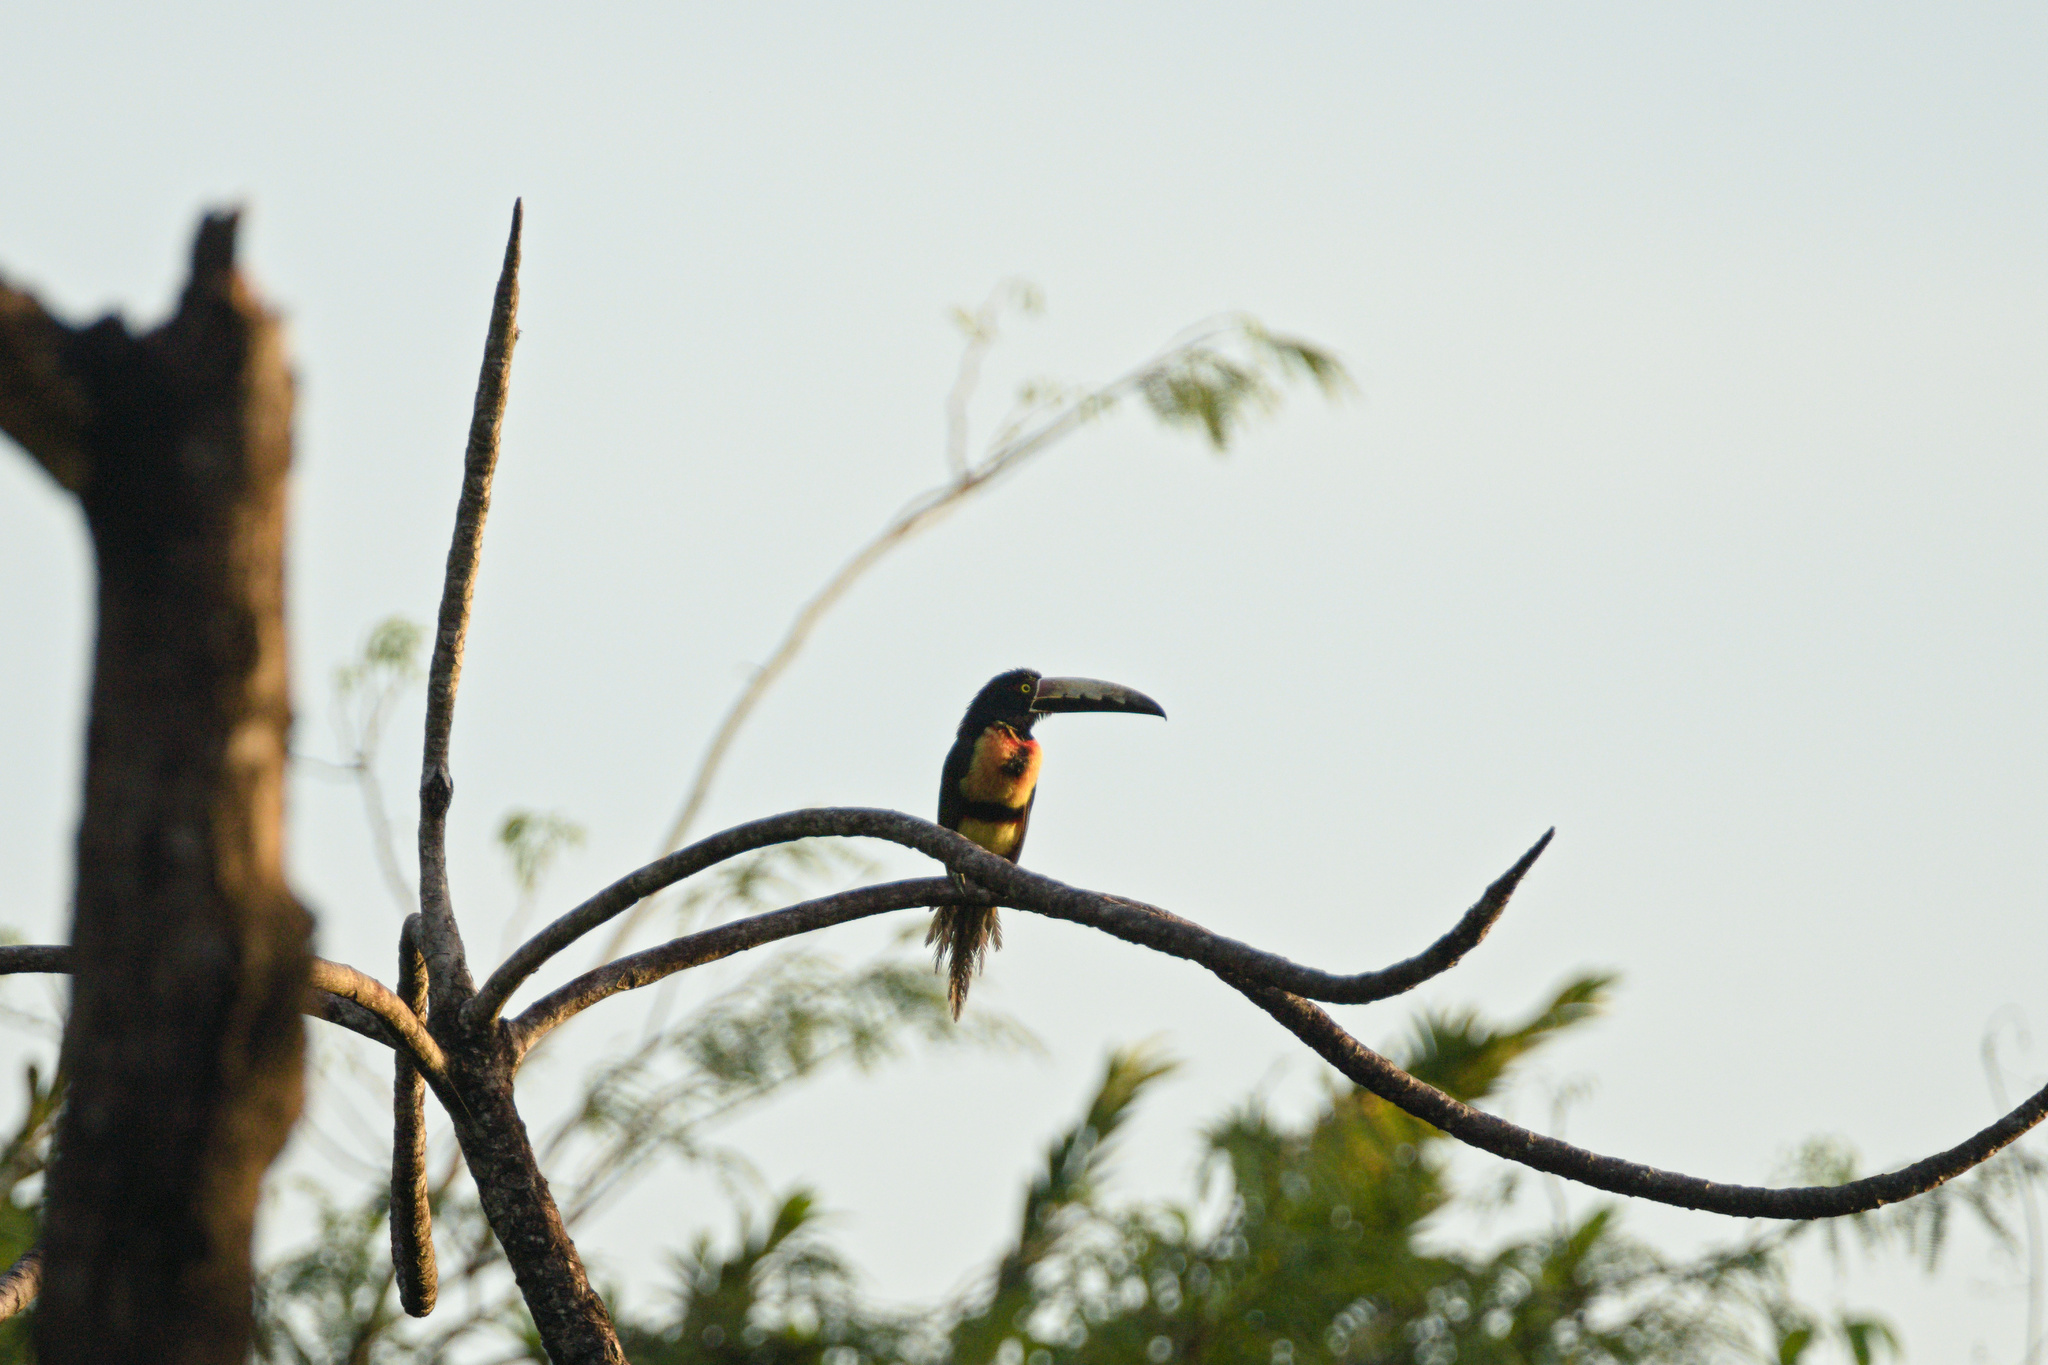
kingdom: Animalia
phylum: Chordata
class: Aves
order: Piciformes
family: Ramphastidae
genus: Pteroglossus
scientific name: Pteroglossus torquatus
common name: Collared aracari
